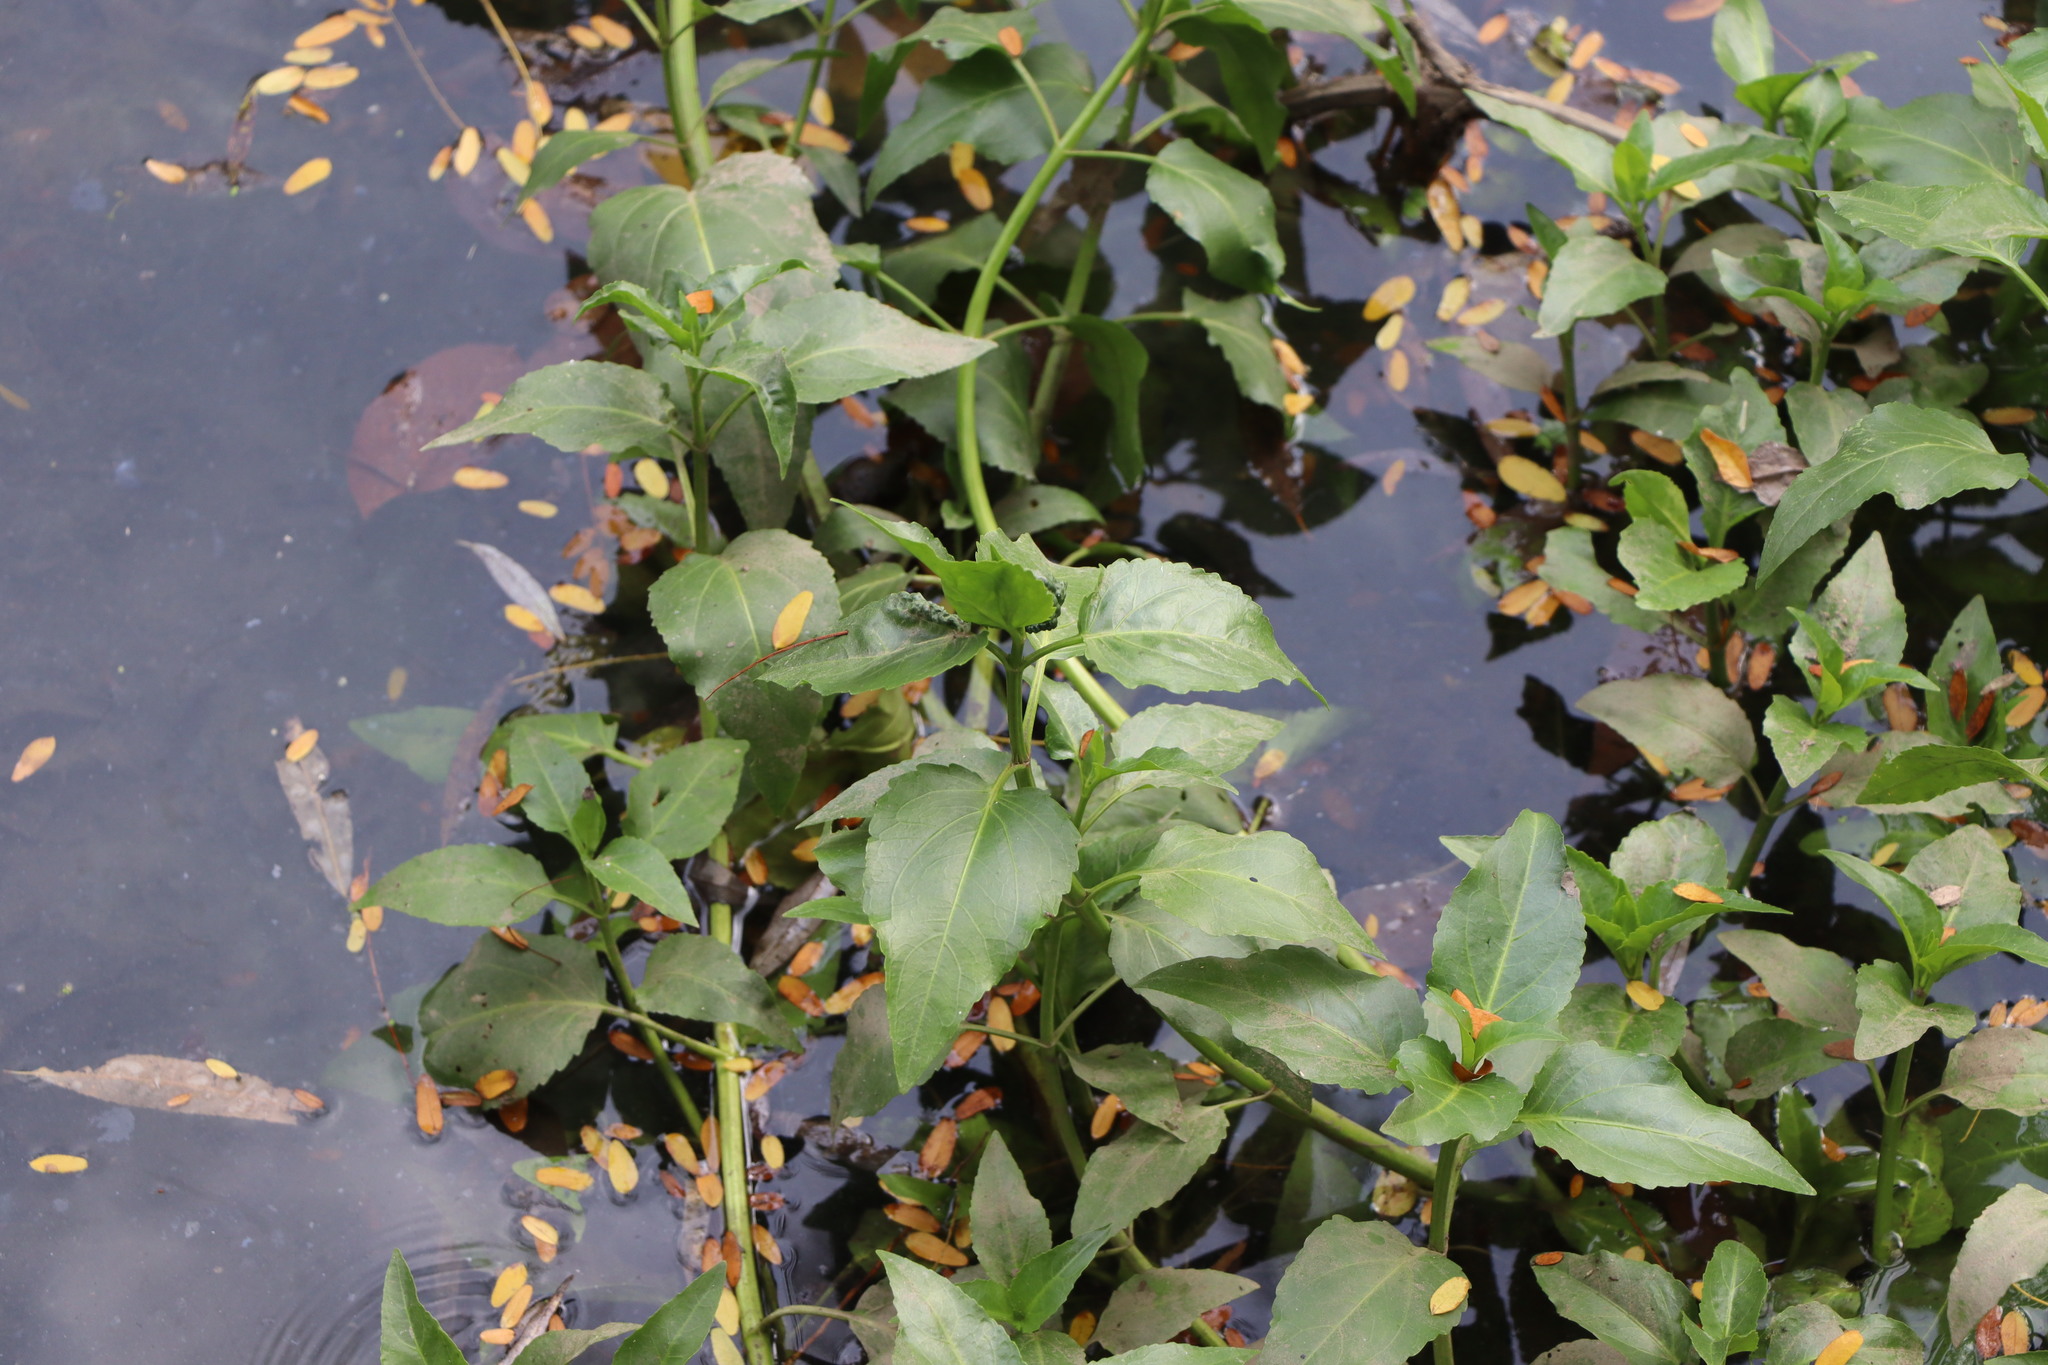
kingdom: Plantae
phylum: Tracheophyta
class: Magnoliopsida
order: Asterales
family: Asteraceae
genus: Gymnocoronis
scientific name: Gymnocoronis spilanthoides
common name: Senegal teaplant
